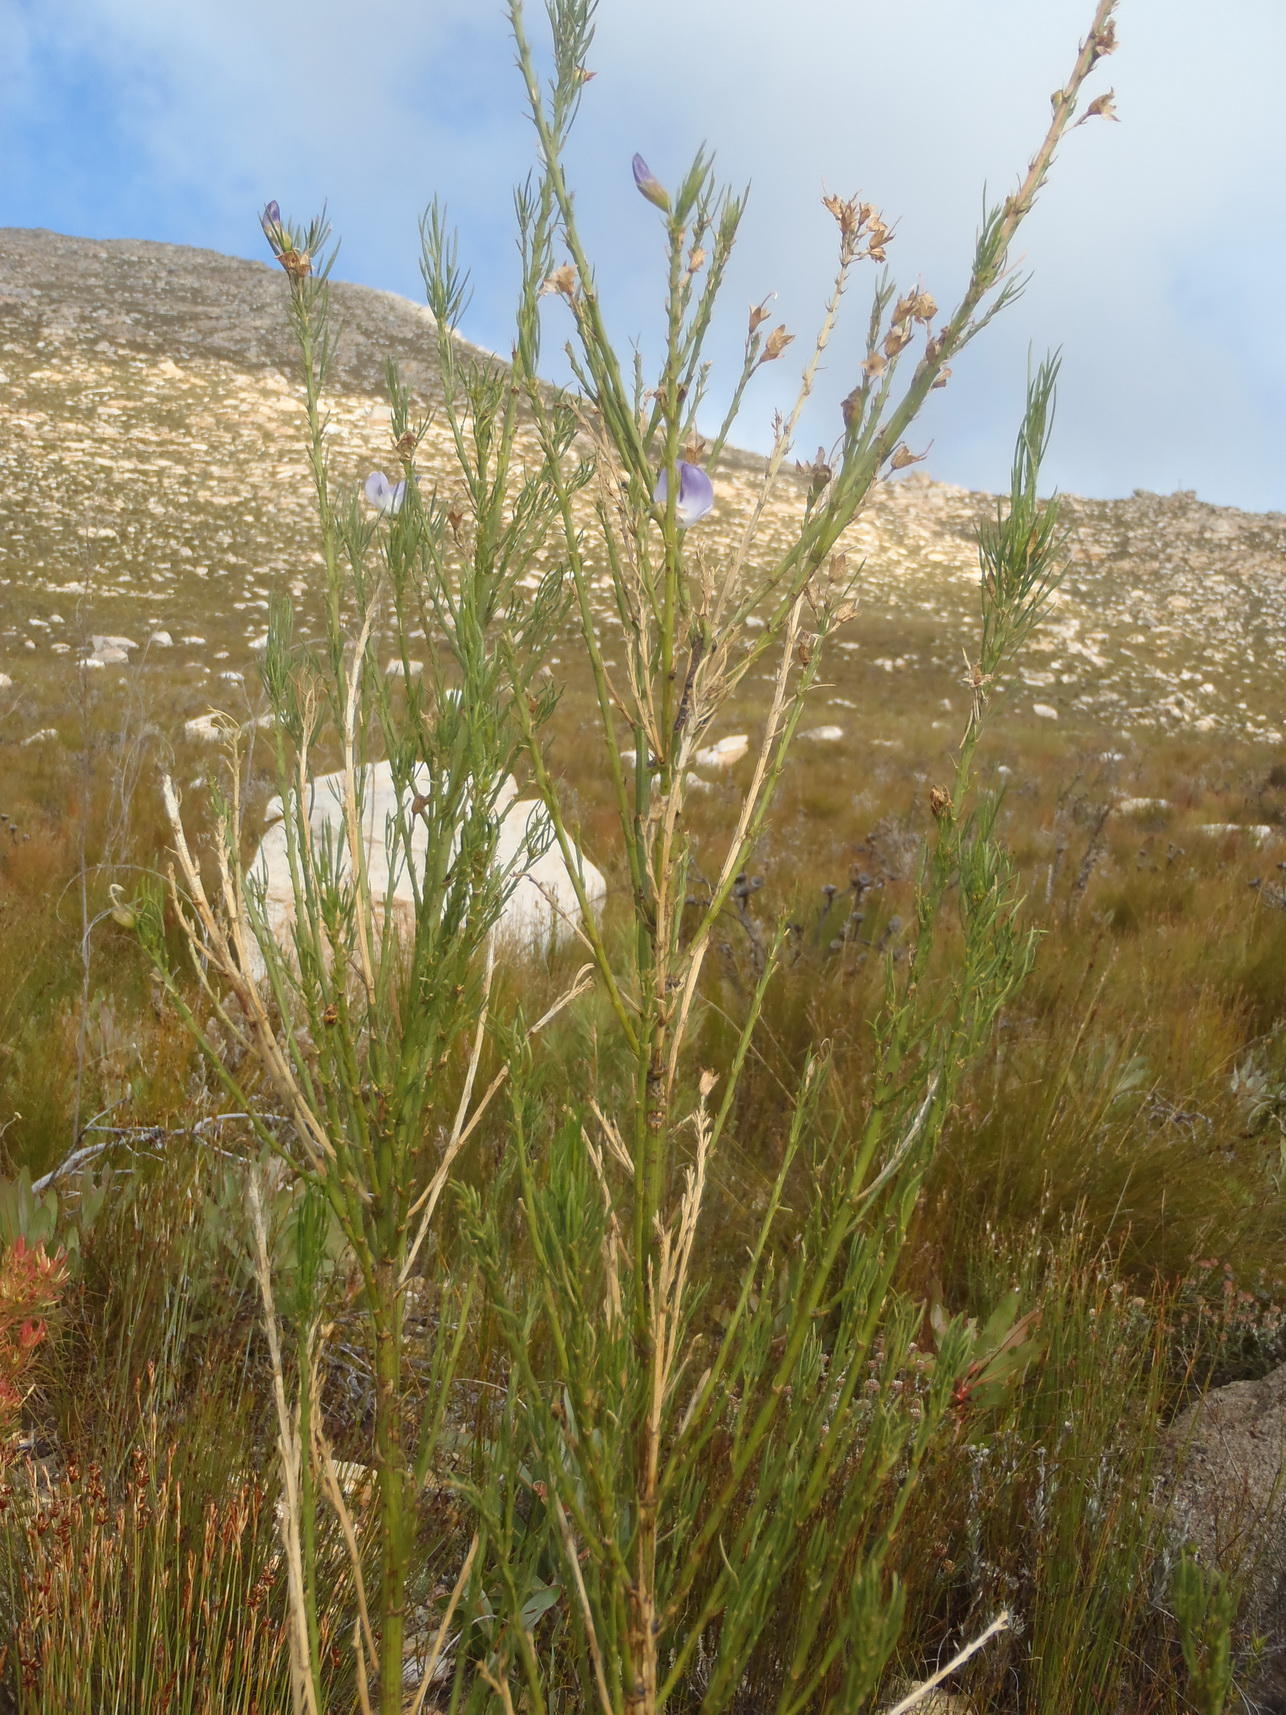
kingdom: Plantae
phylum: Tracheophyta
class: Magnoliopsida
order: Fabales
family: Fabaceae
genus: Psoralea
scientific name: Psoralea sordida
